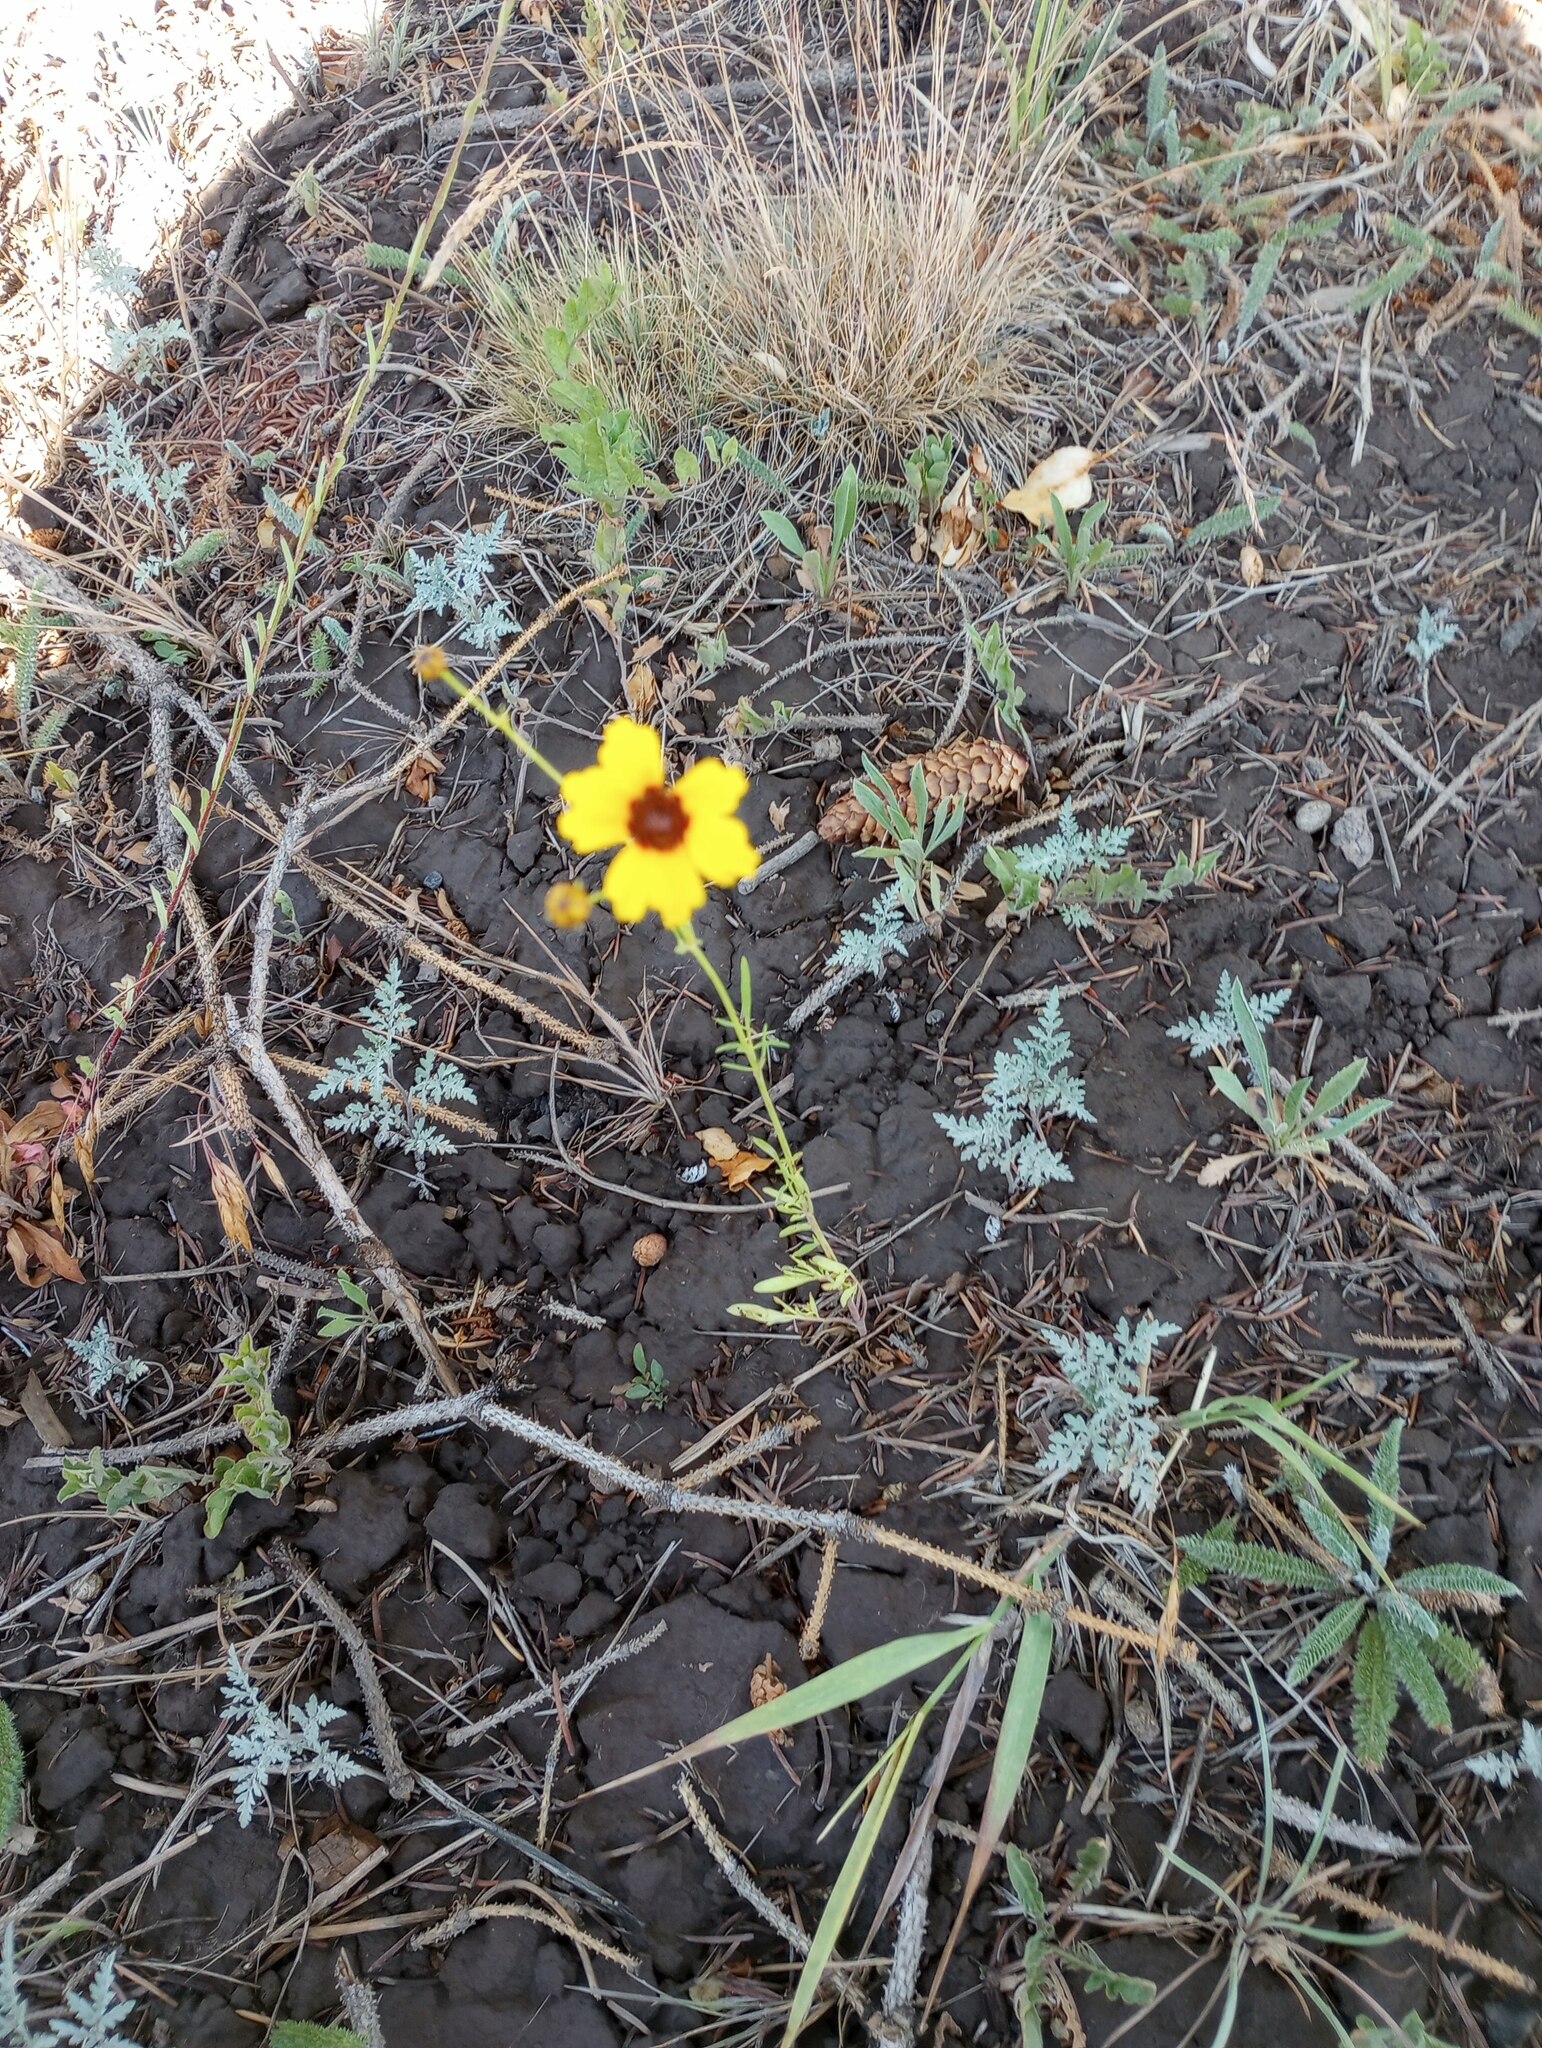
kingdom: Plantae
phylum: Tracheophyta
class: Magnoliopsida
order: Asterales
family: Asteraceae
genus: Coreopsis
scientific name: Coreopsis tinctoria
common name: Garden tickseed
